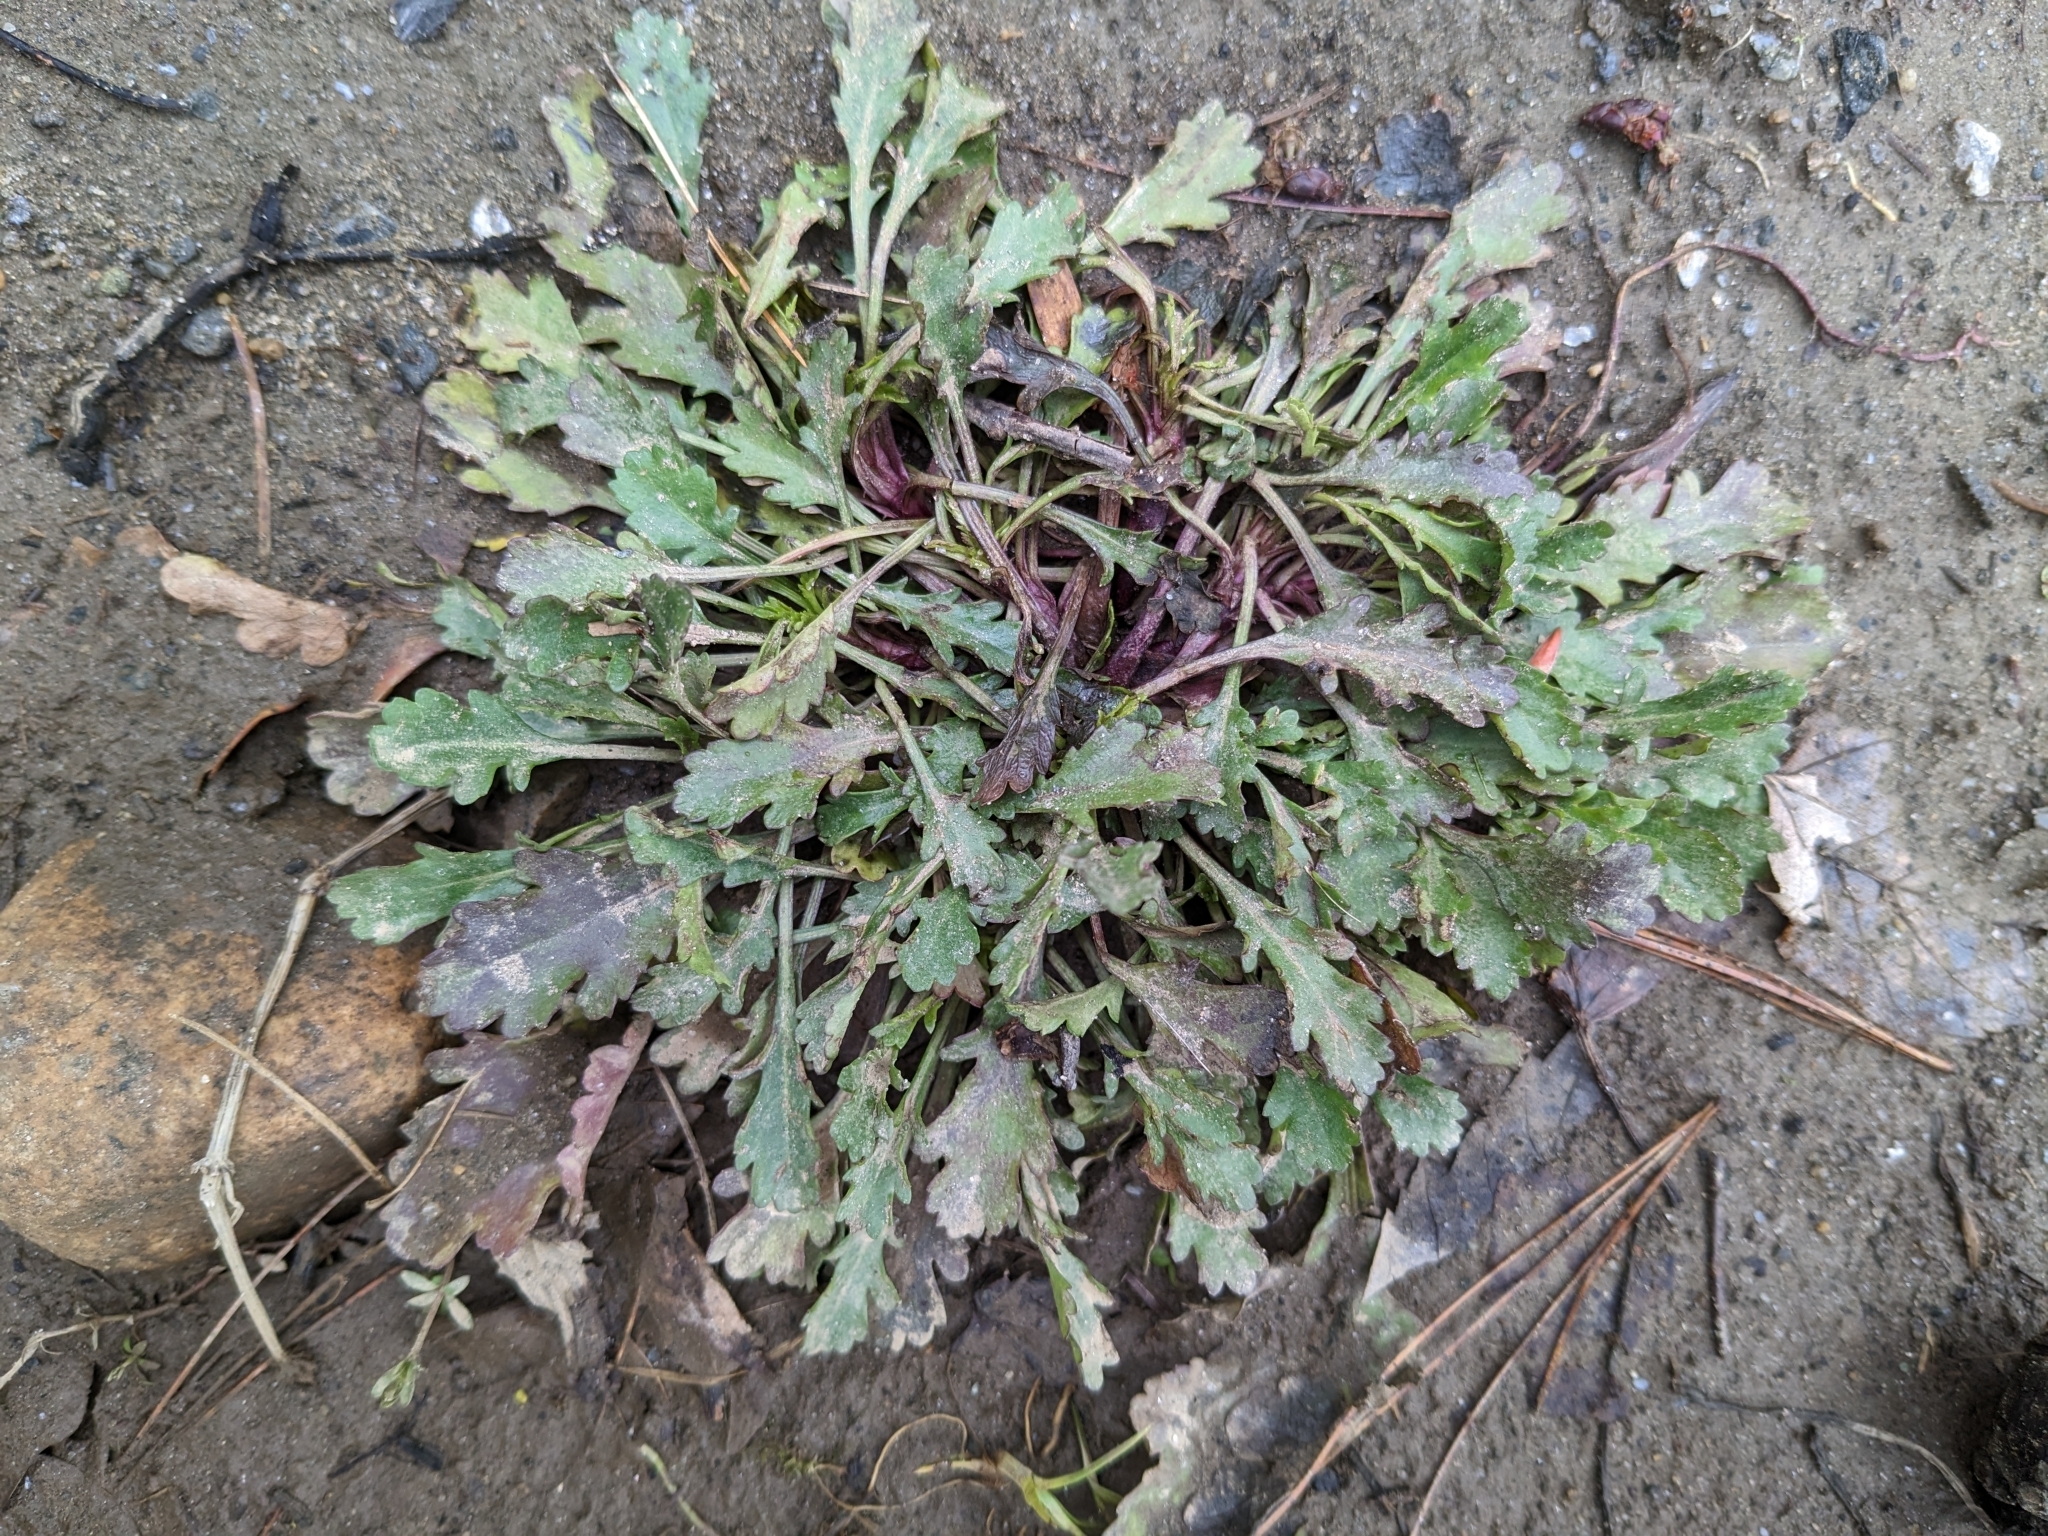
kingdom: Plantae
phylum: Tracheophyta
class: Magnoliopsida
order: Asterales
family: Asteraceae
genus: Leucanthemum
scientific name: Leucanthemum vulgare
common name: Oxeye daisy
